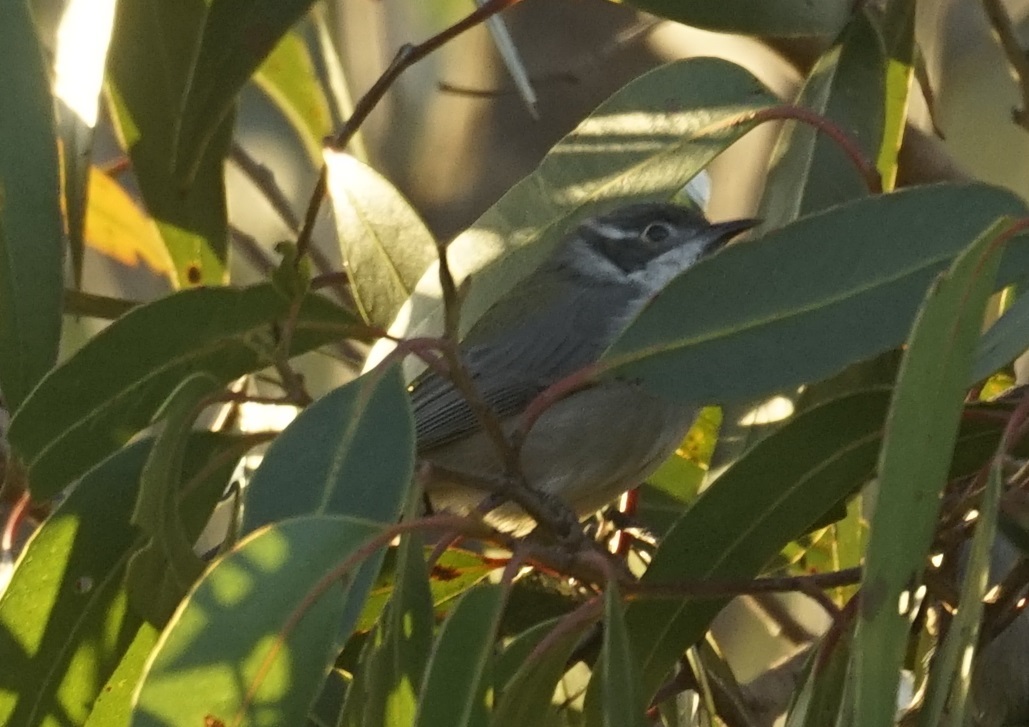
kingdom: Animalia
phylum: Chordata
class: Aves
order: Passeriformes
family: Meliphagidae
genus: Melithreptus
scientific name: Melithreptus brevirostris
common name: Brown-headed honeyeater
